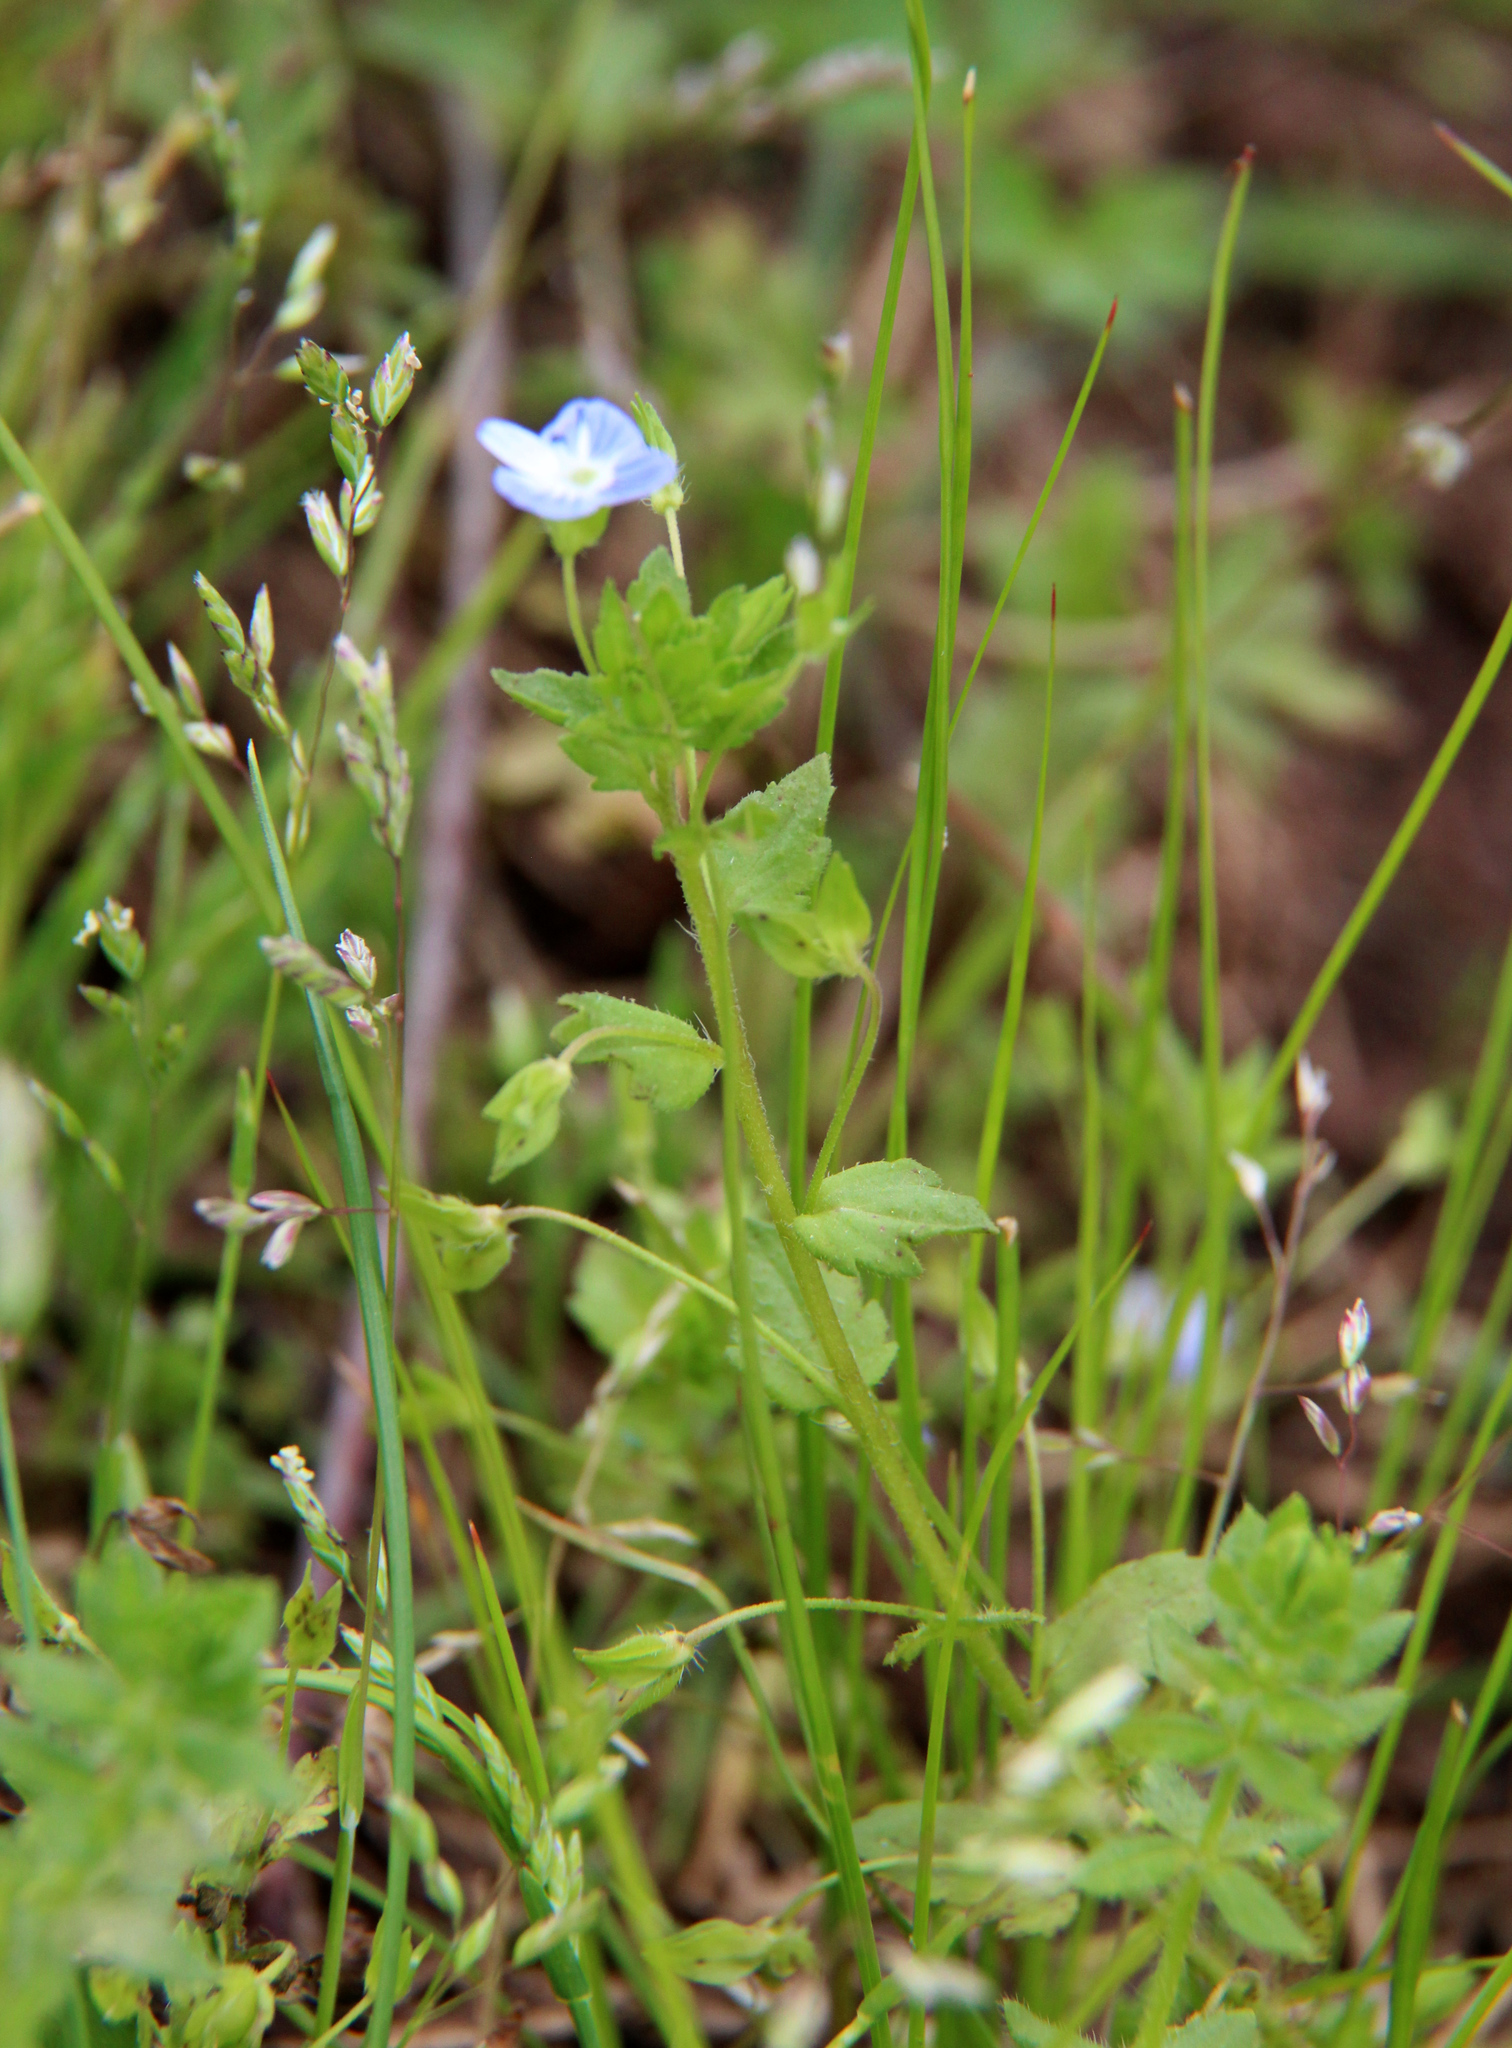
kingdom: Plantae
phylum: Tracheophyta
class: Magnoliopsida
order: Lamiales
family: Plantaginaceae
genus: Veronica
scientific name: Veronica persica
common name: Common field-speedwell
